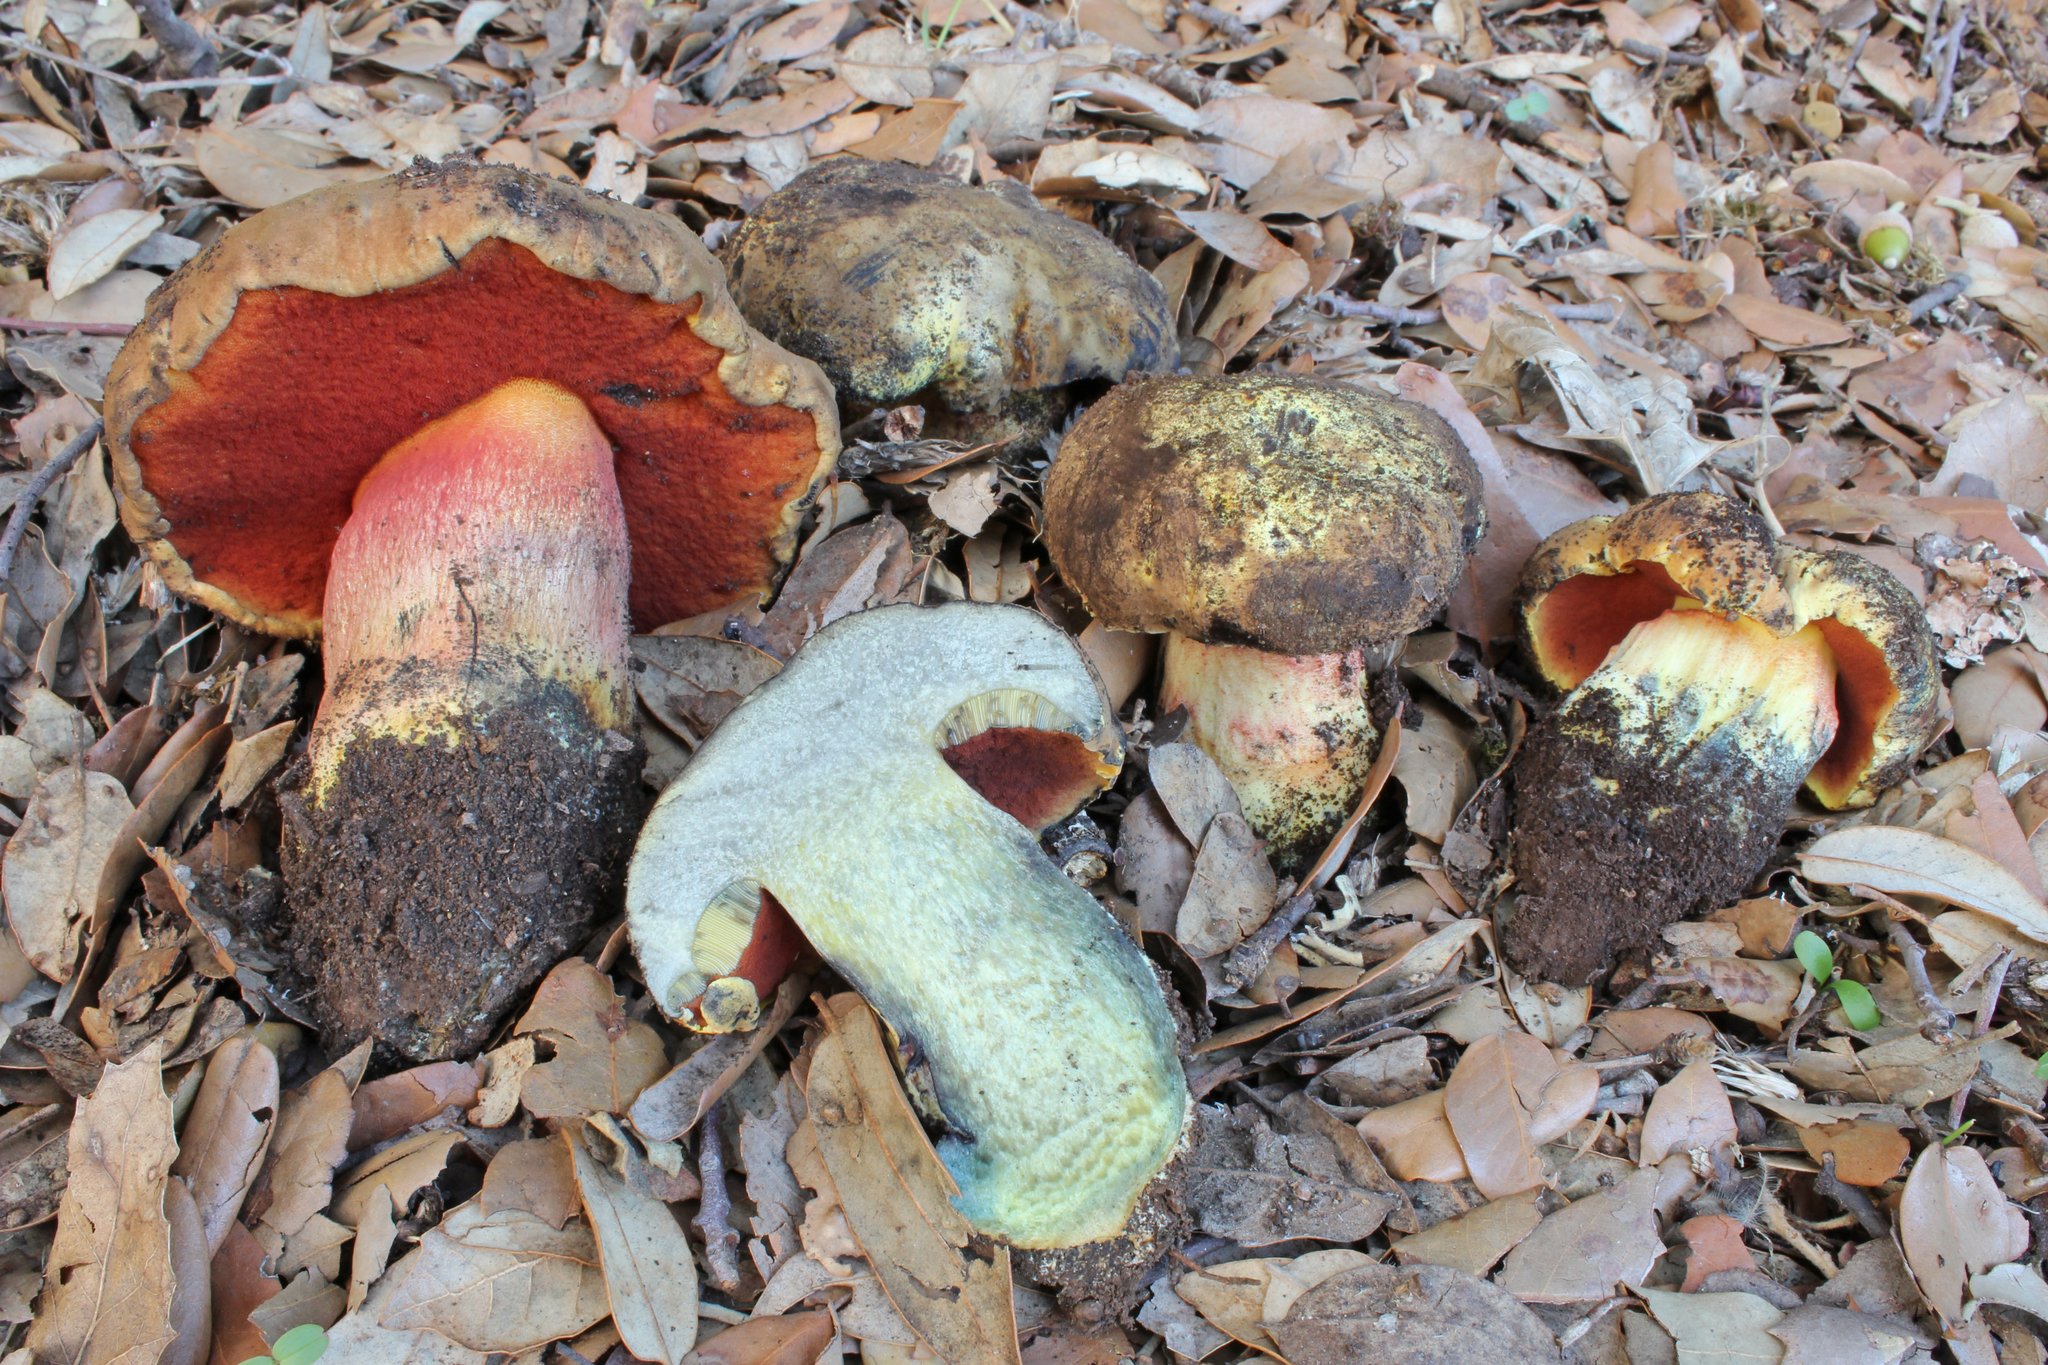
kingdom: Fungi
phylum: Basidiomycota
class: Agaricomycetes
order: Boletales
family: Boletaceae
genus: Neoboletus
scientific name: Neoboletus xanthopus
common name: False yellow bolete
